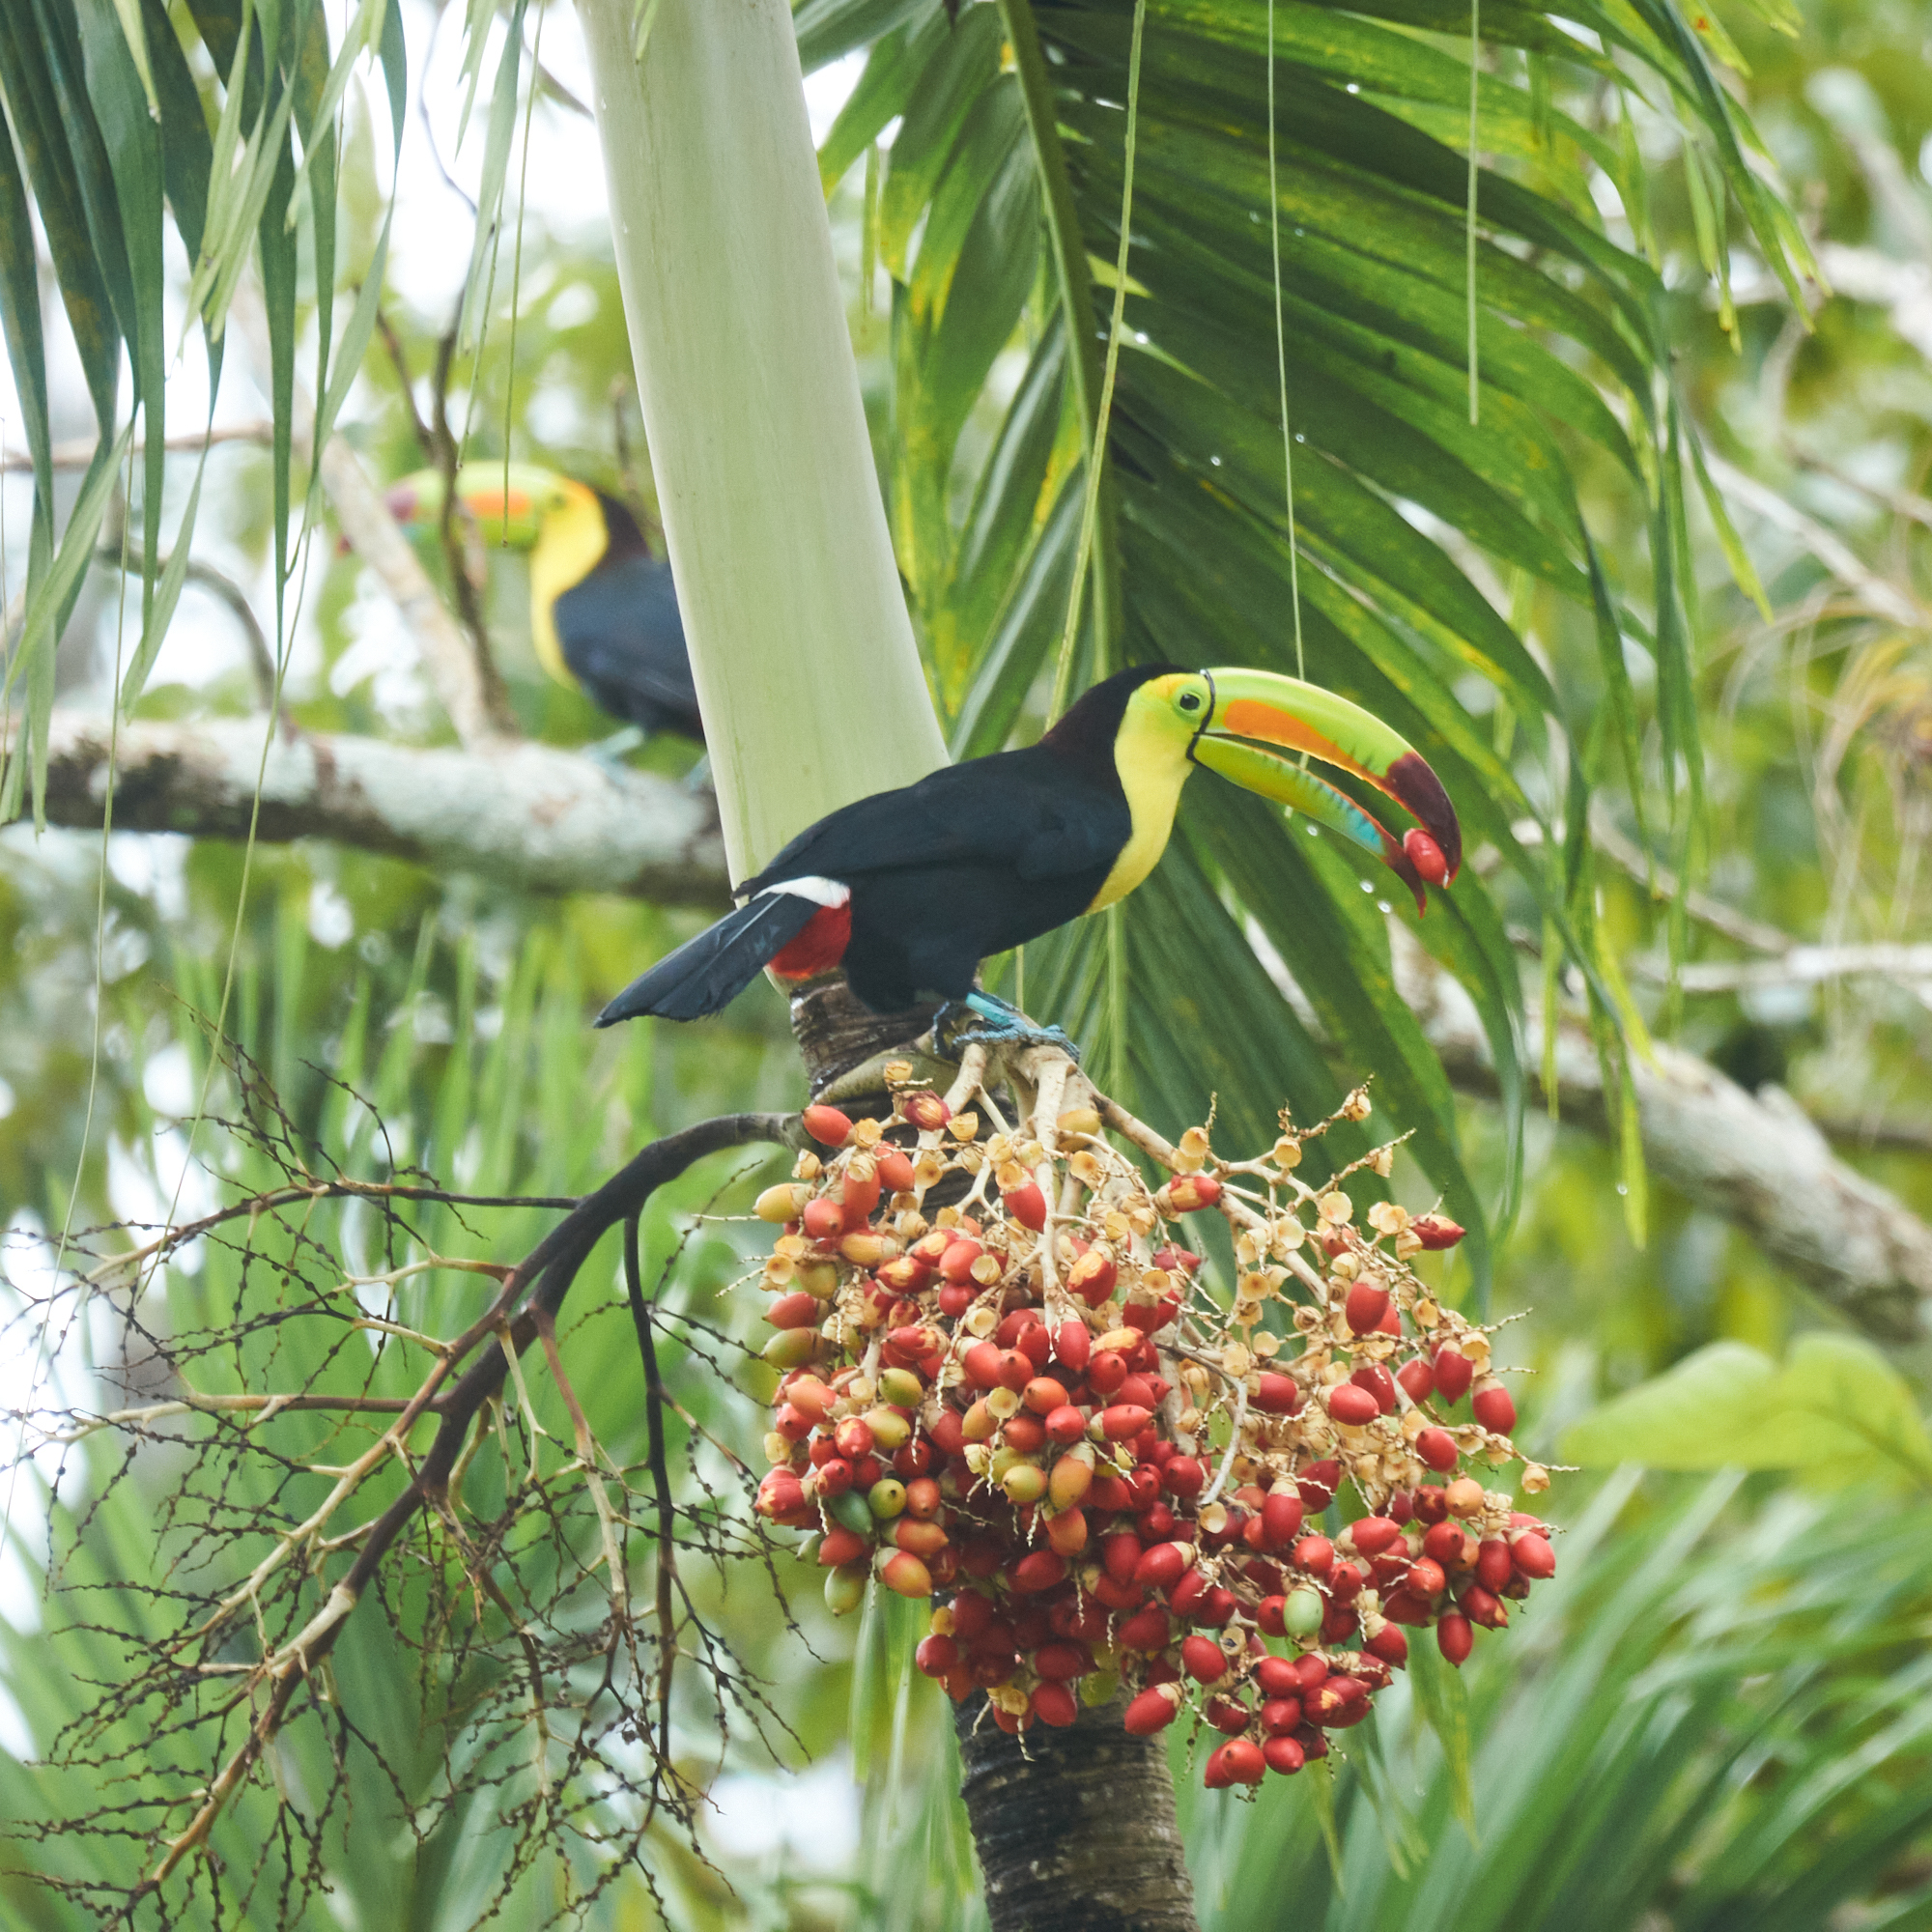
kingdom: Animalia
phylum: Chordata
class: Aves
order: Piciformes
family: Ramphastidae
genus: Ramphastos
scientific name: Ramphastos sulfuratus
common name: Keel-billed toucan
